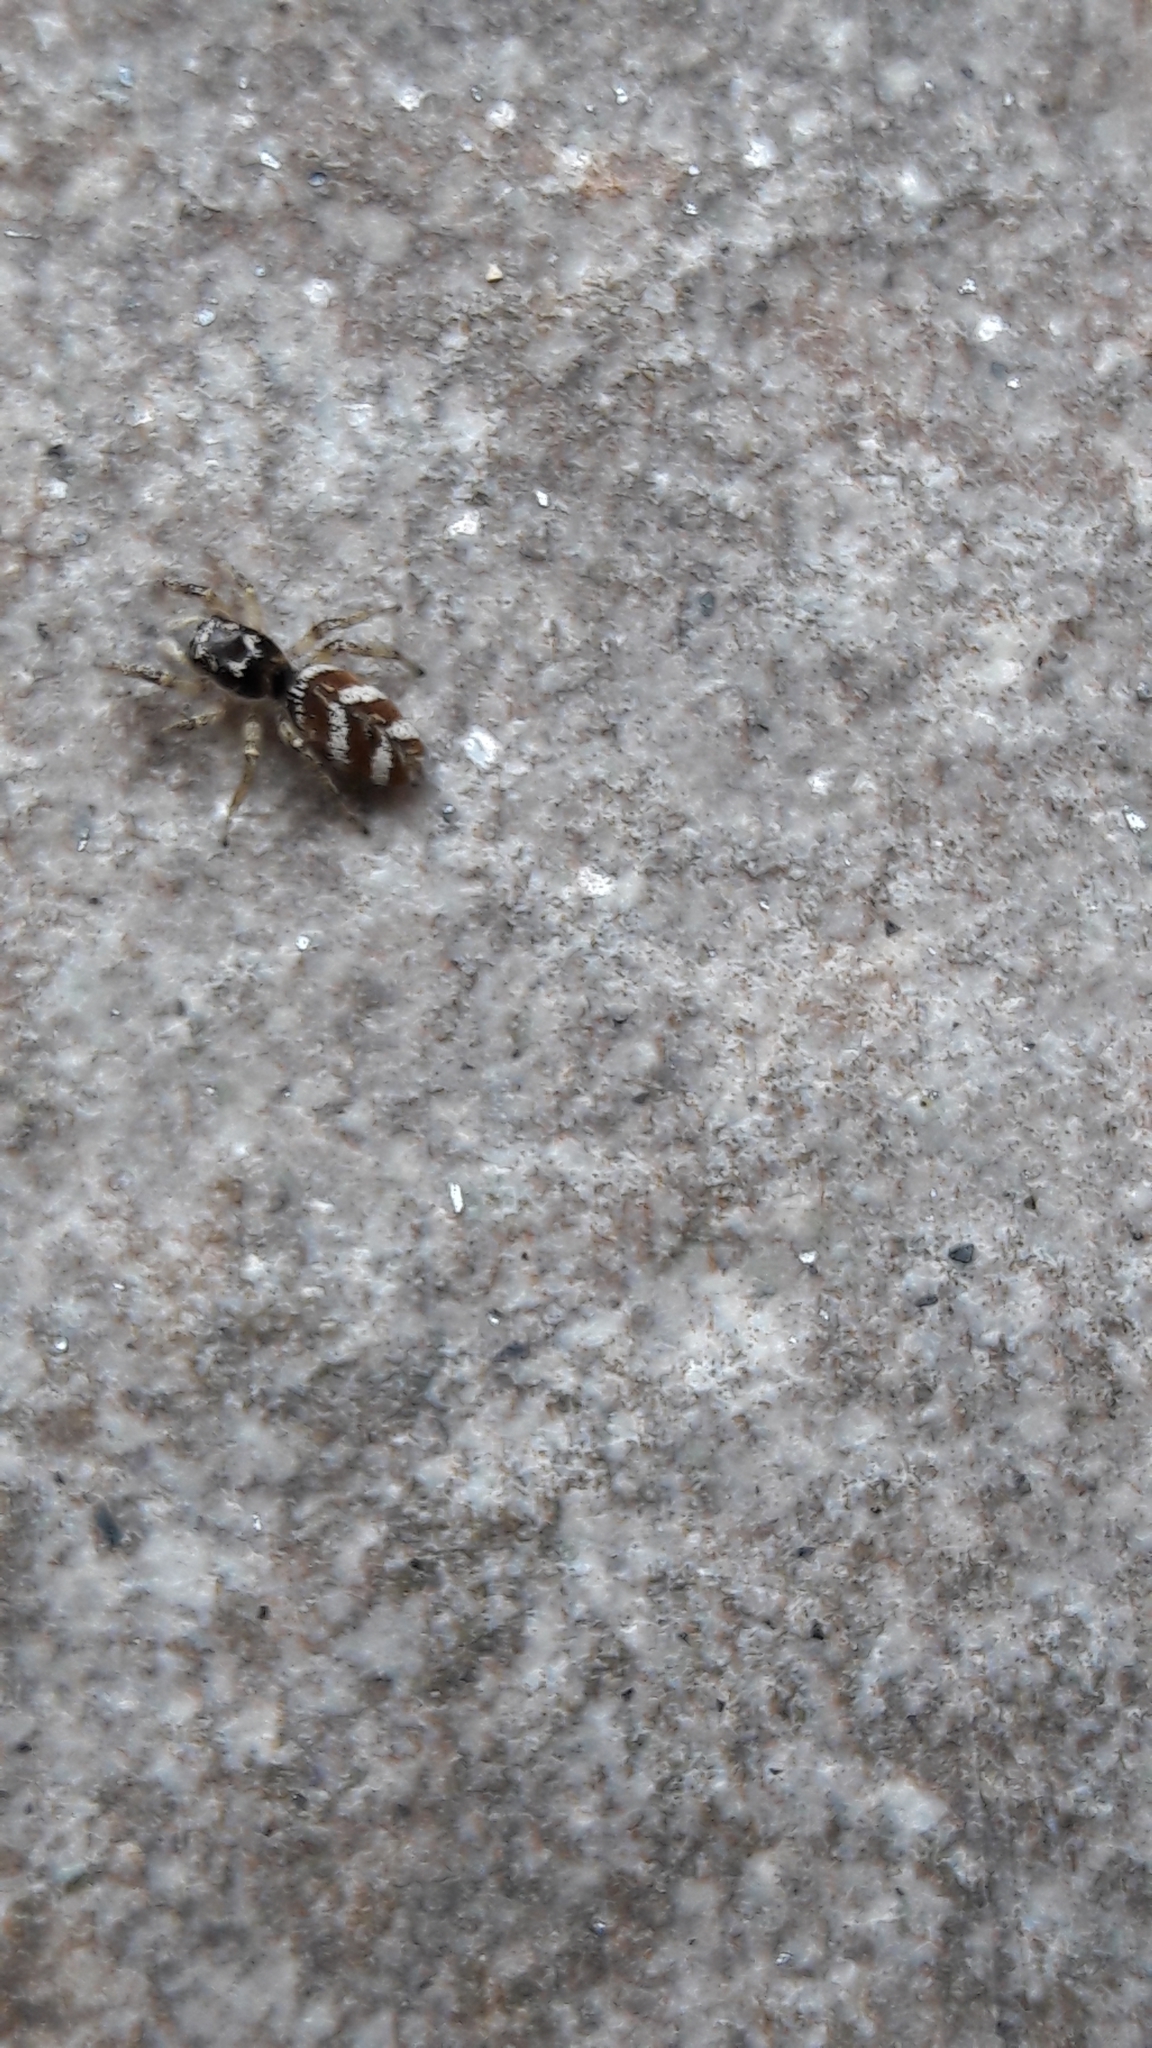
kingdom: Animalia
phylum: Arthropoda
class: Arachnida
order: Araneae
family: Salticidae
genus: Salticus
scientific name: Salticus scenicus
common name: Zebra jumper
